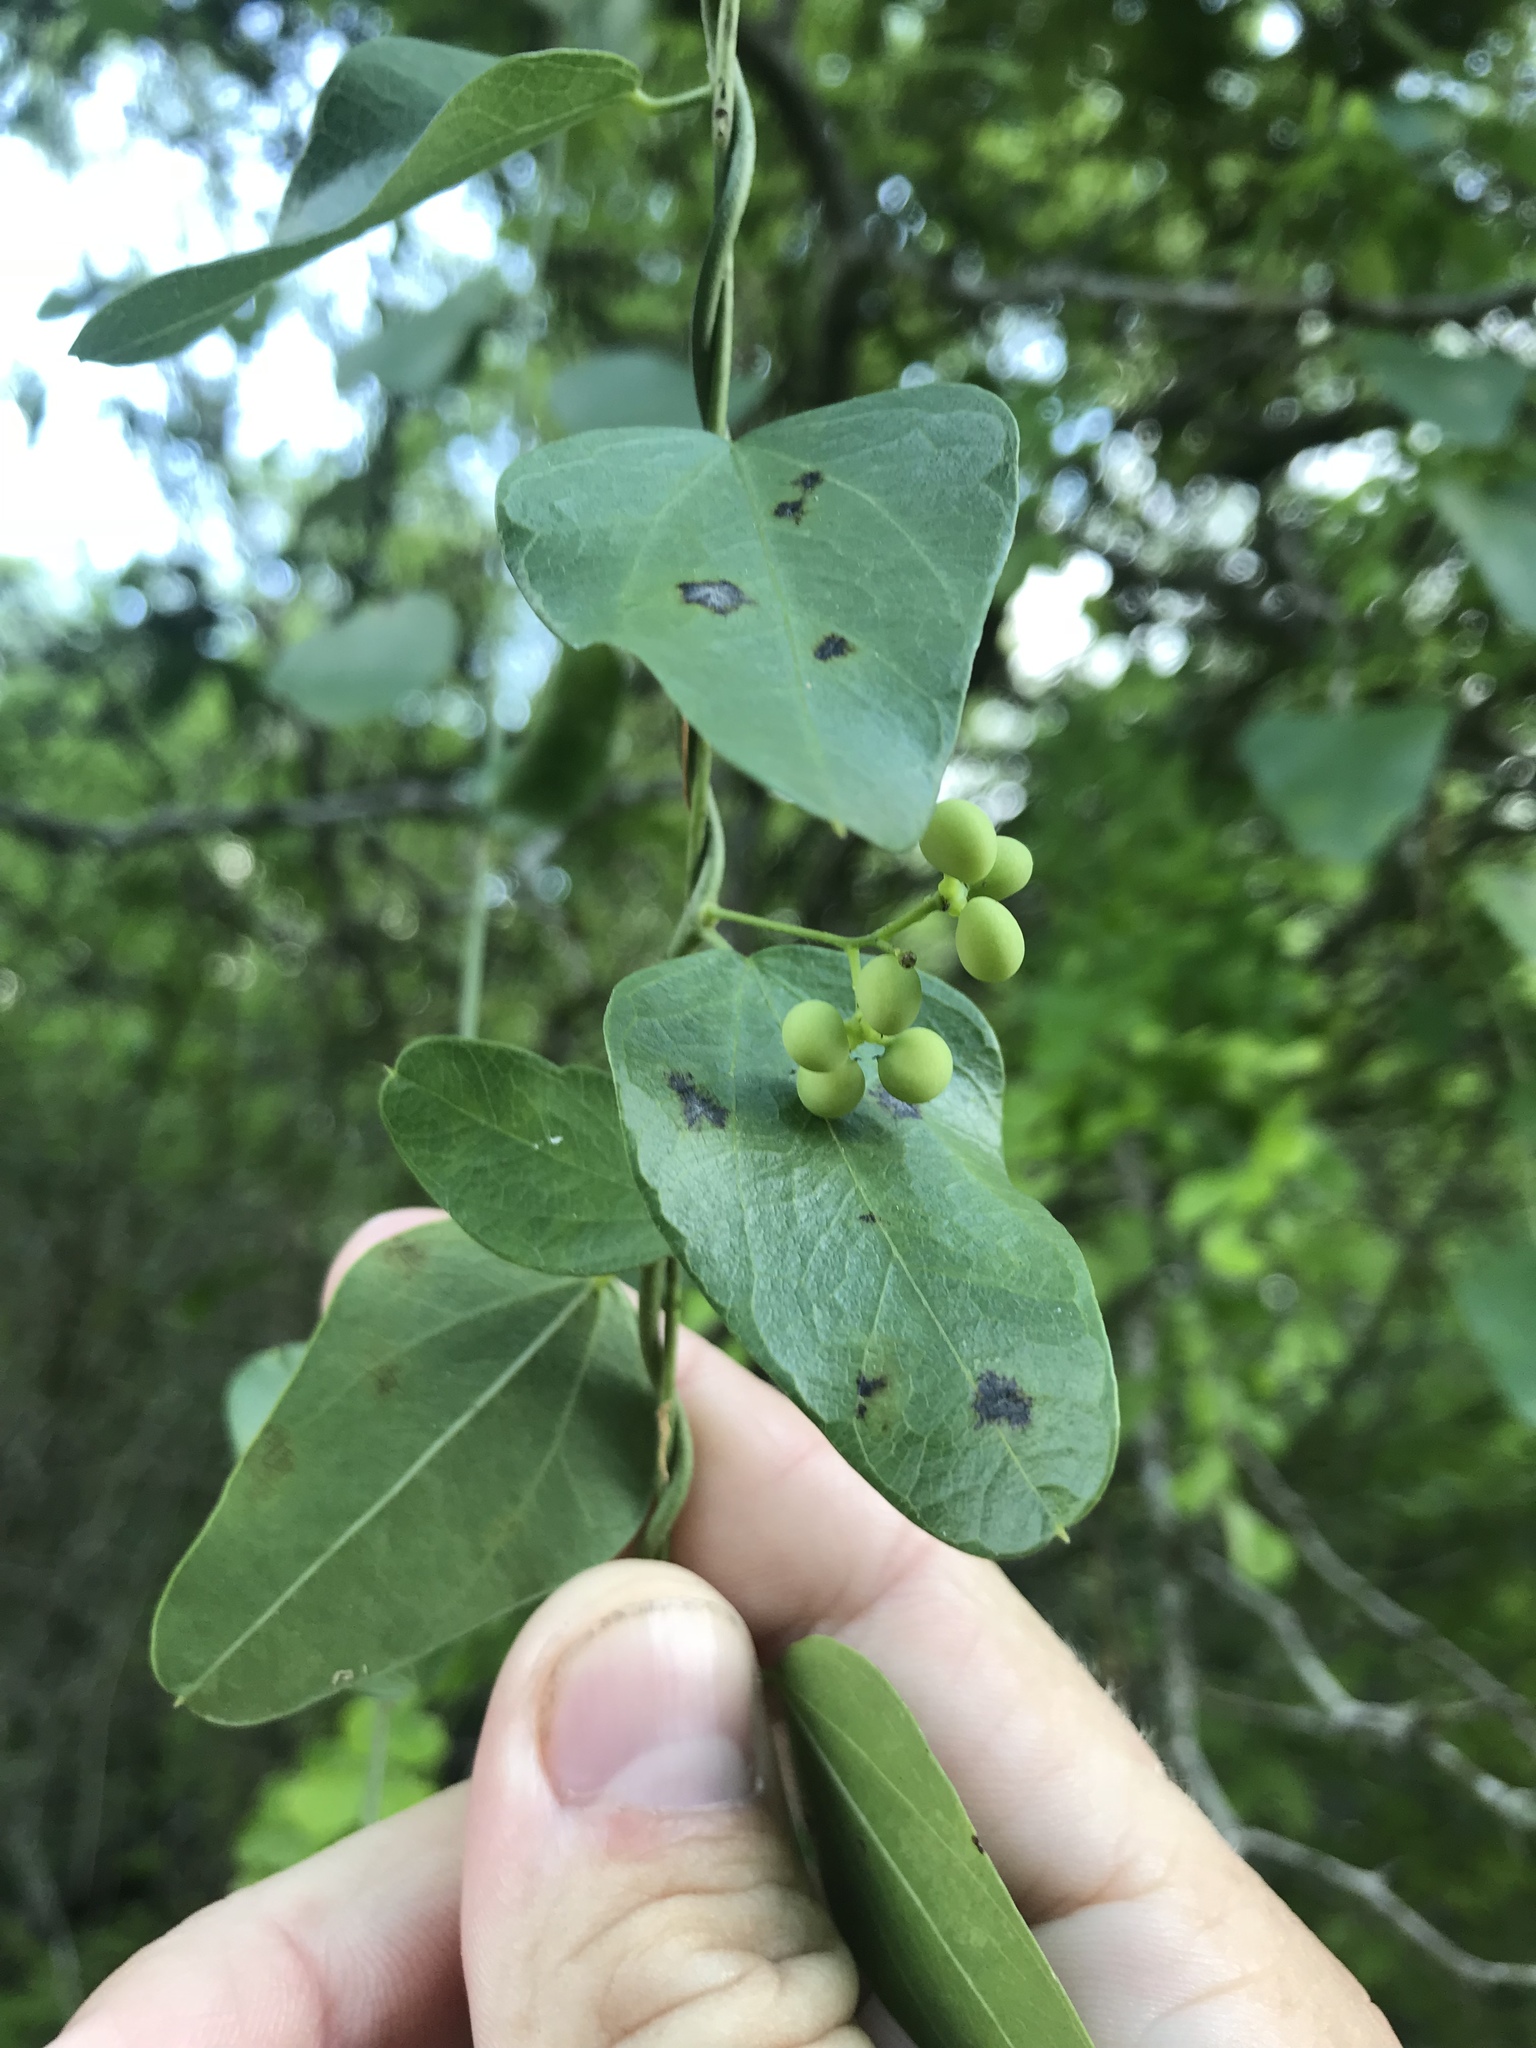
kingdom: Plantae
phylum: Tracheophyta
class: Magnoliopsida
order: Ranunculales
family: Menispermaceae
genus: Cocculus
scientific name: Cocculus diversifolius
